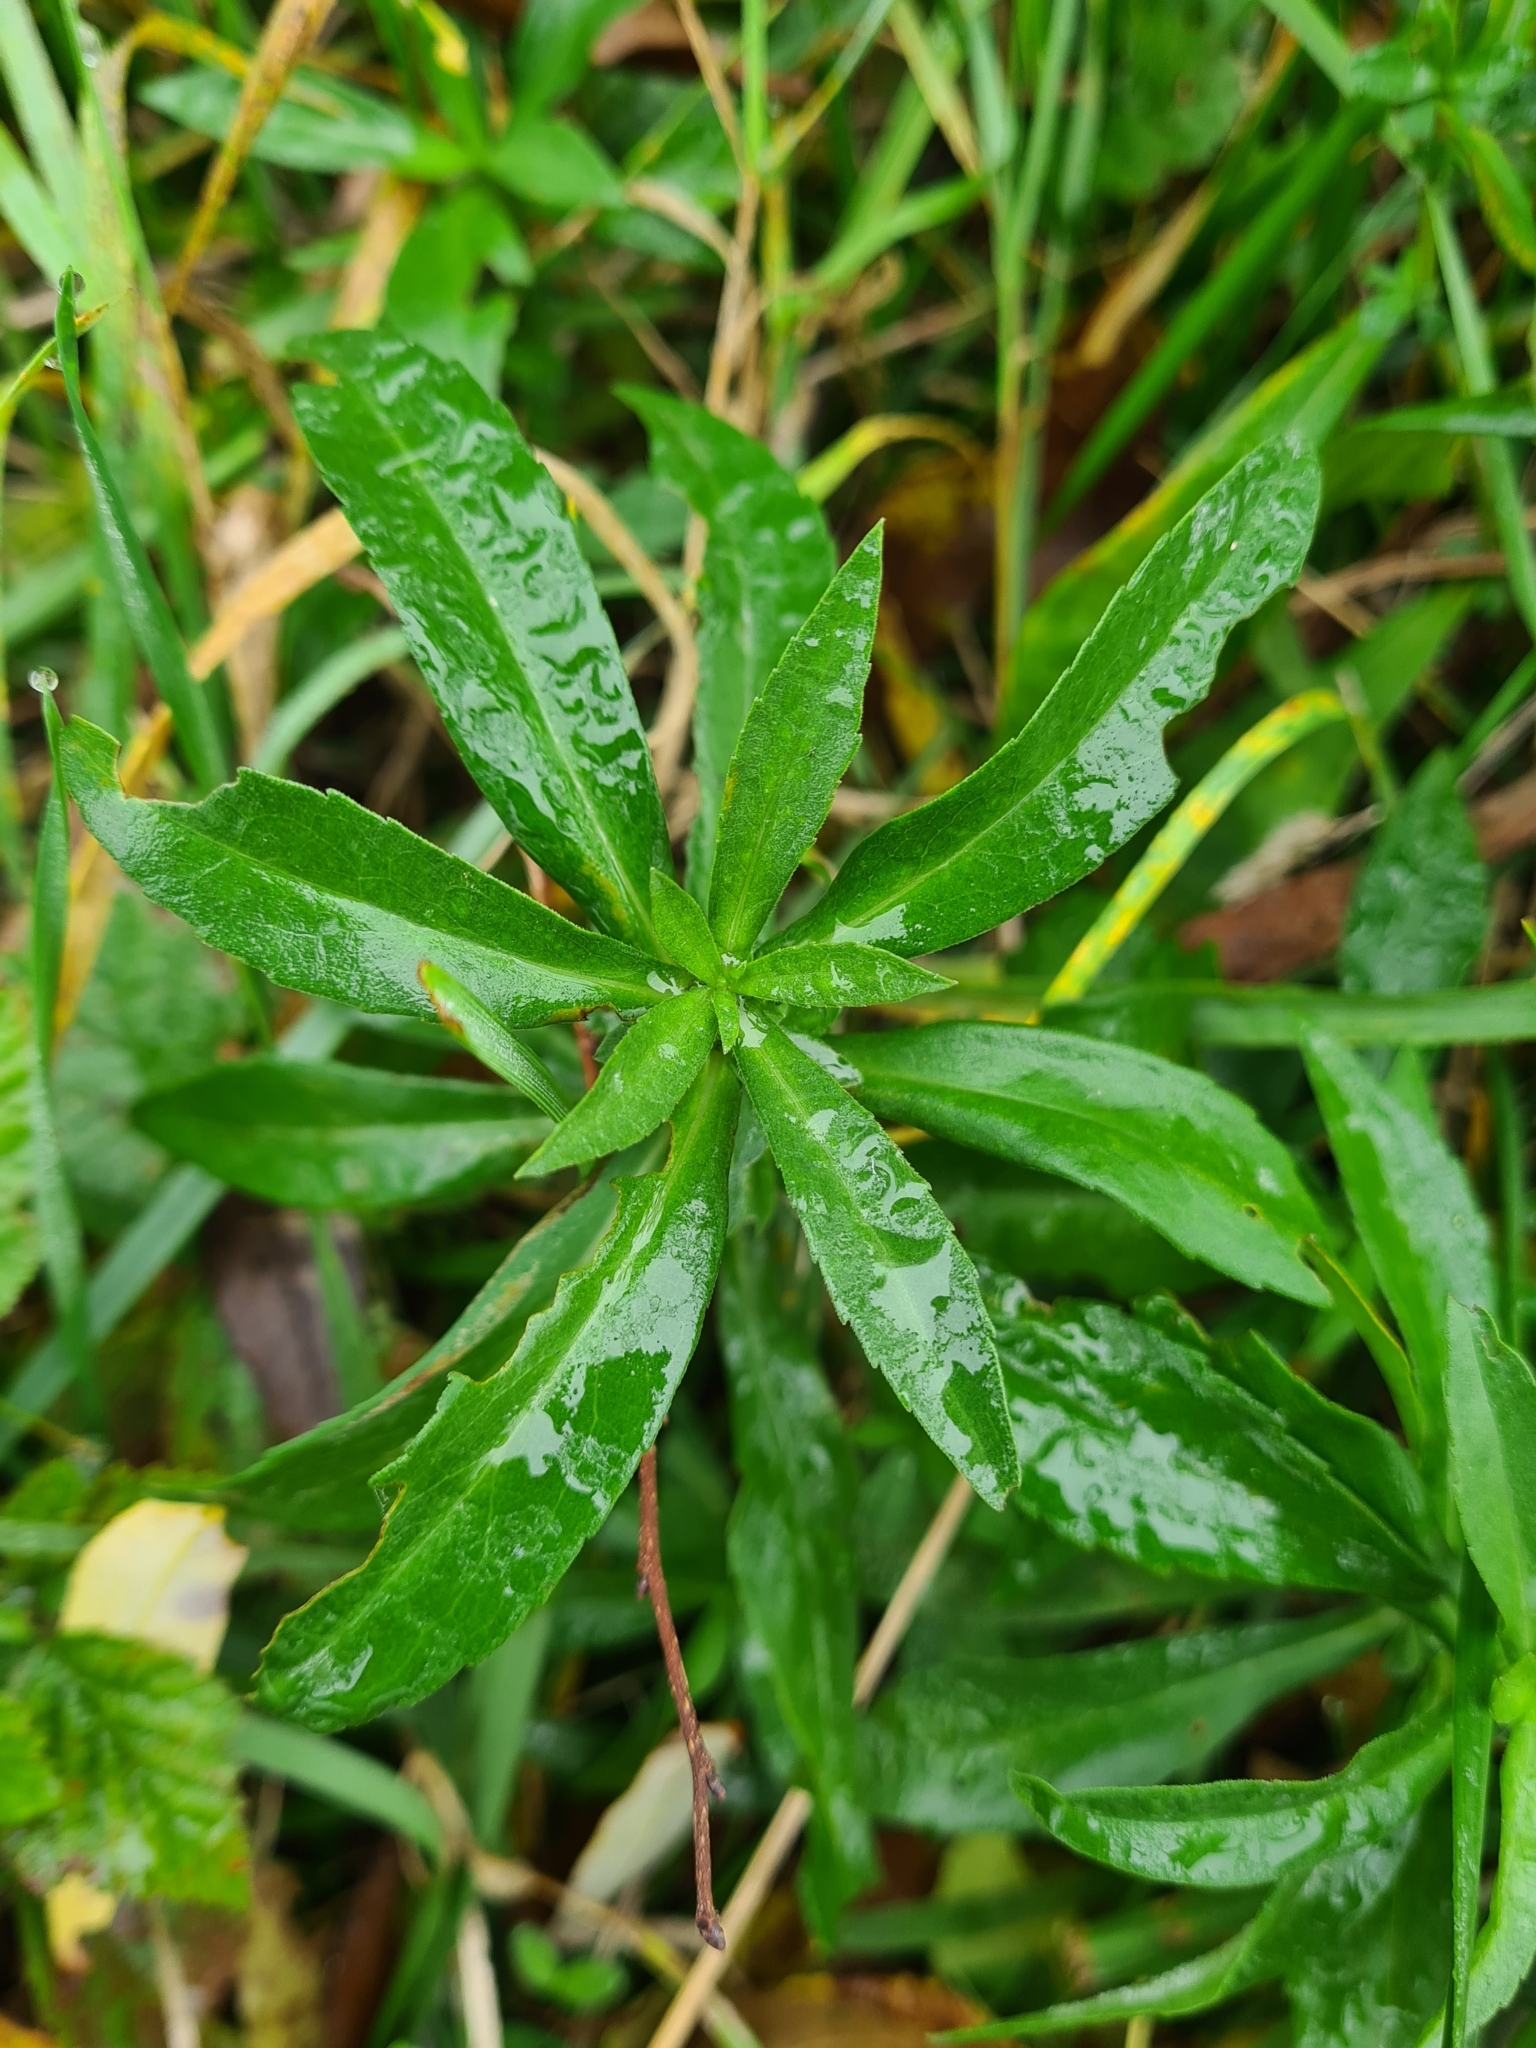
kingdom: Plantae
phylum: Tracheophyta
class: Magnoliopsida
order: Asterales
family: Asteraceae
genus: Symphyotrichum
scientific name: Symphyotrichum lanceolatum
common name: Panicled aster
